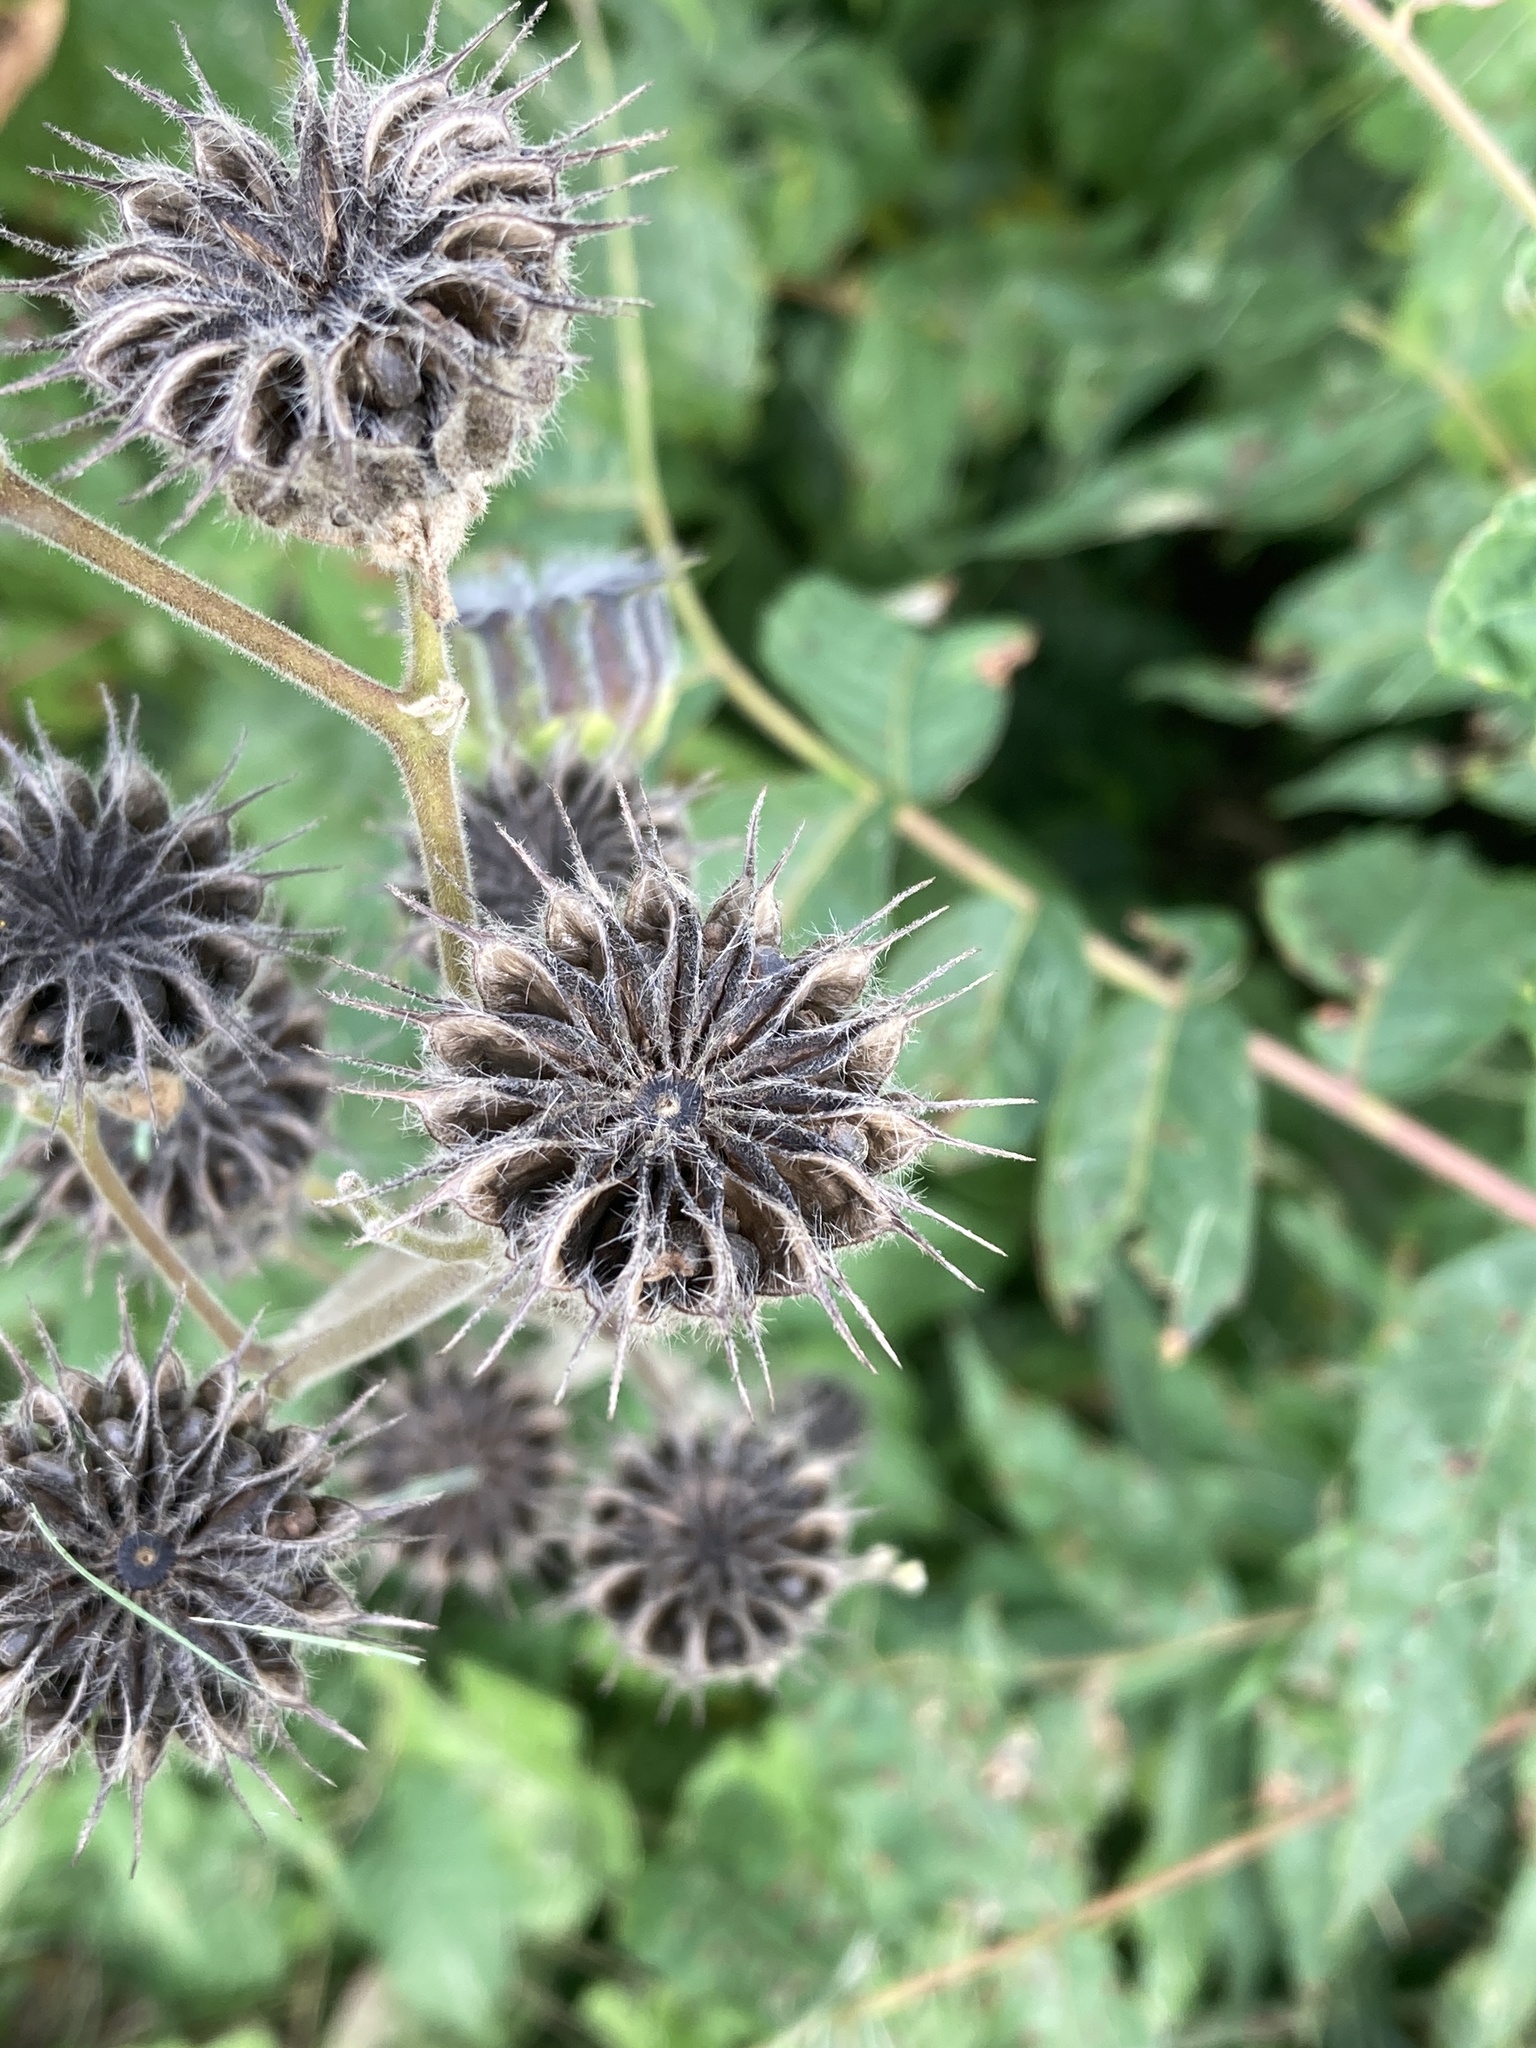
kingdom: Plantae
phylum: Tracheophyta
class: Magnoliopsida
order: Malvales
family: Malvaceae
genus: Abutilon
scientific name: Abutilon theophrasti
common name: Velvetleaf
